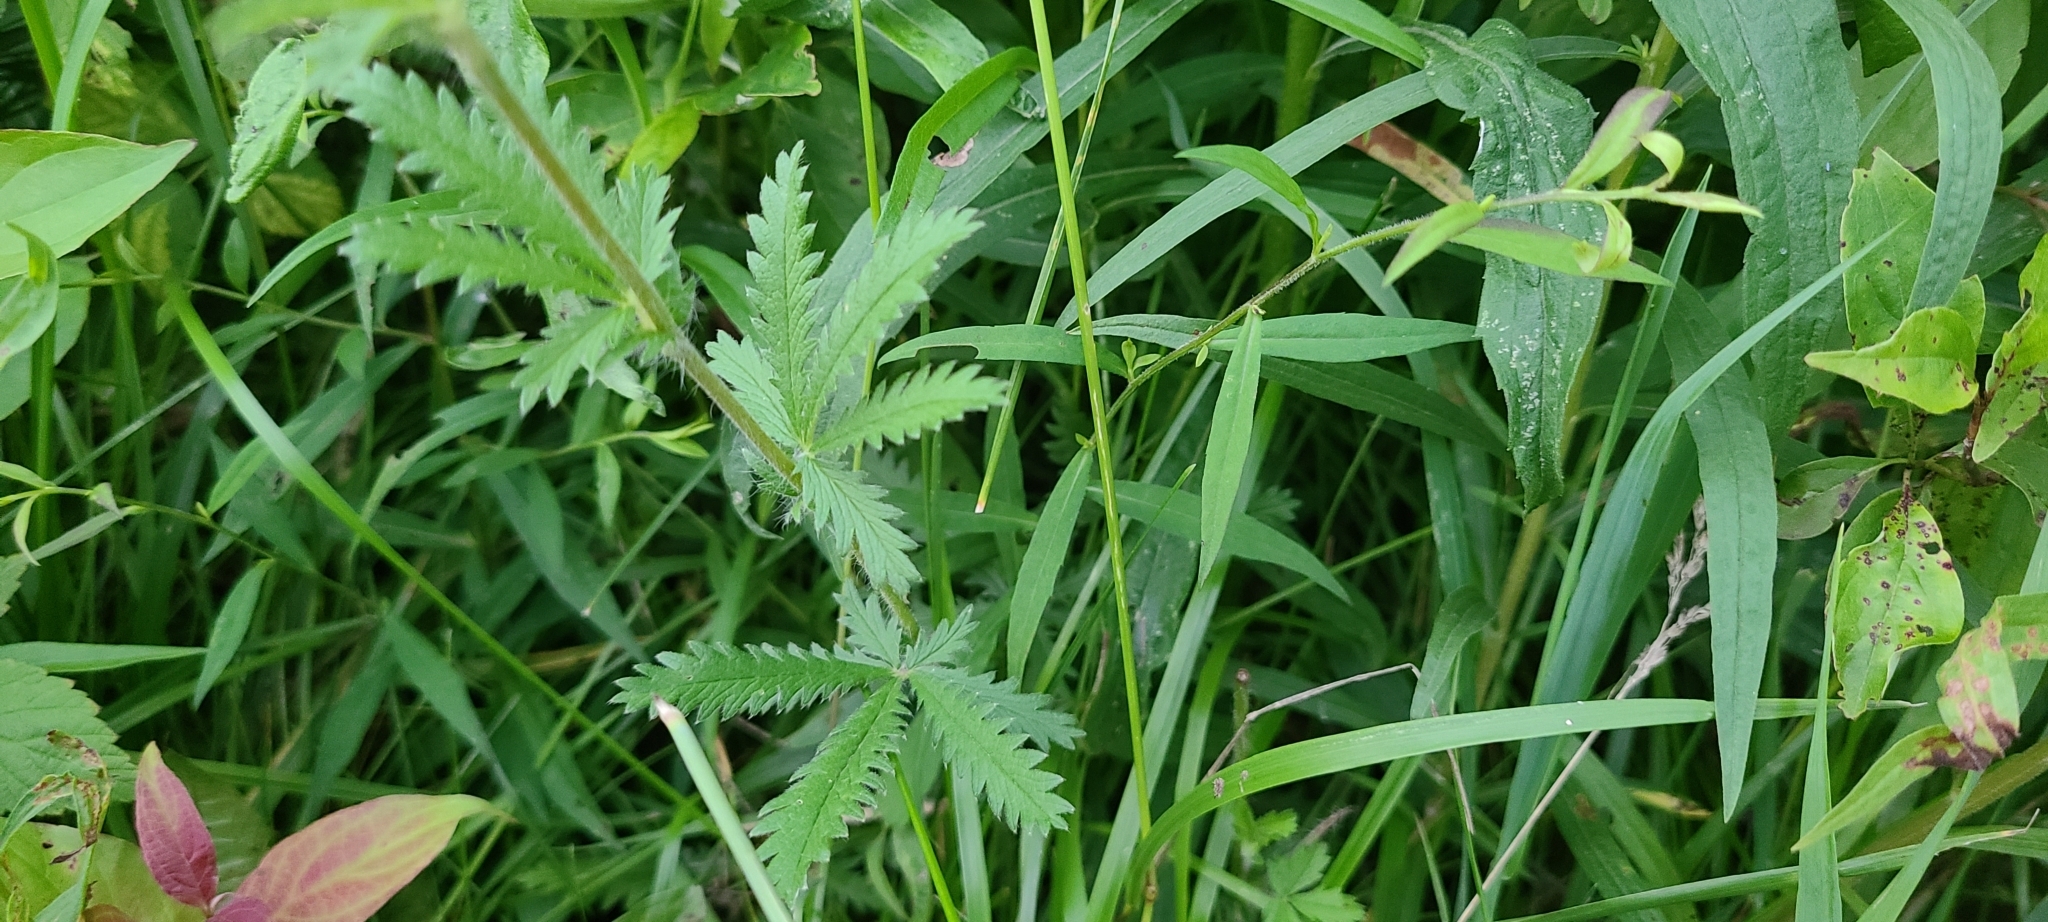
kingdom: Plantae
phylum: Tracheophyta
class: Magnoliopsida
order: Rosales
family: Rosaceae
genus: Potentilla
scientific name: Potentilla recta
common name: Sulphur cinquefoil
